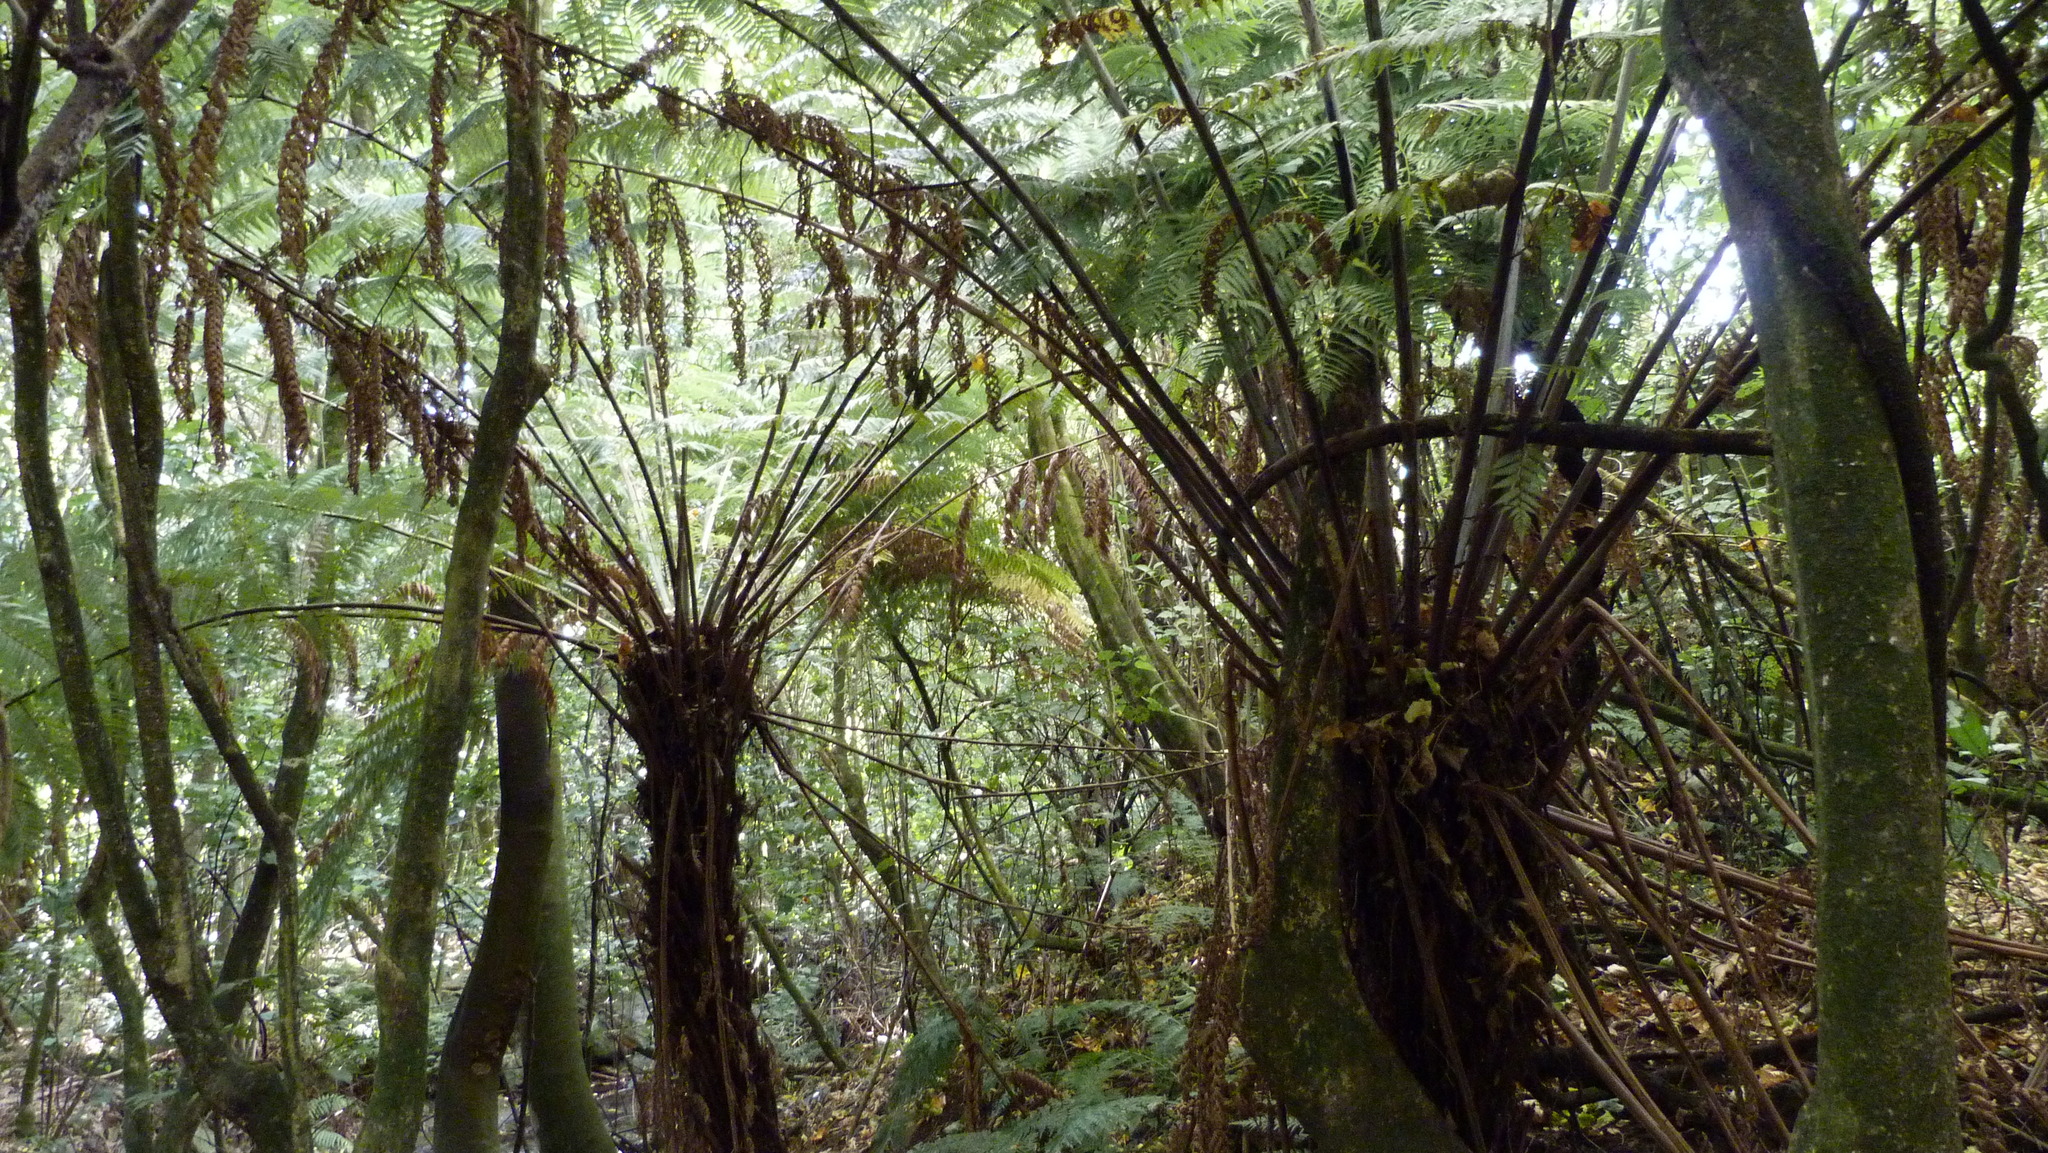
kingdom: Plantae
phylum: Tracheophyta
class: Polypodiopsida
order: Cyatheales
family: Cyatheaceae
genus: Alsophila
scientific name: Alsophila dealbata
